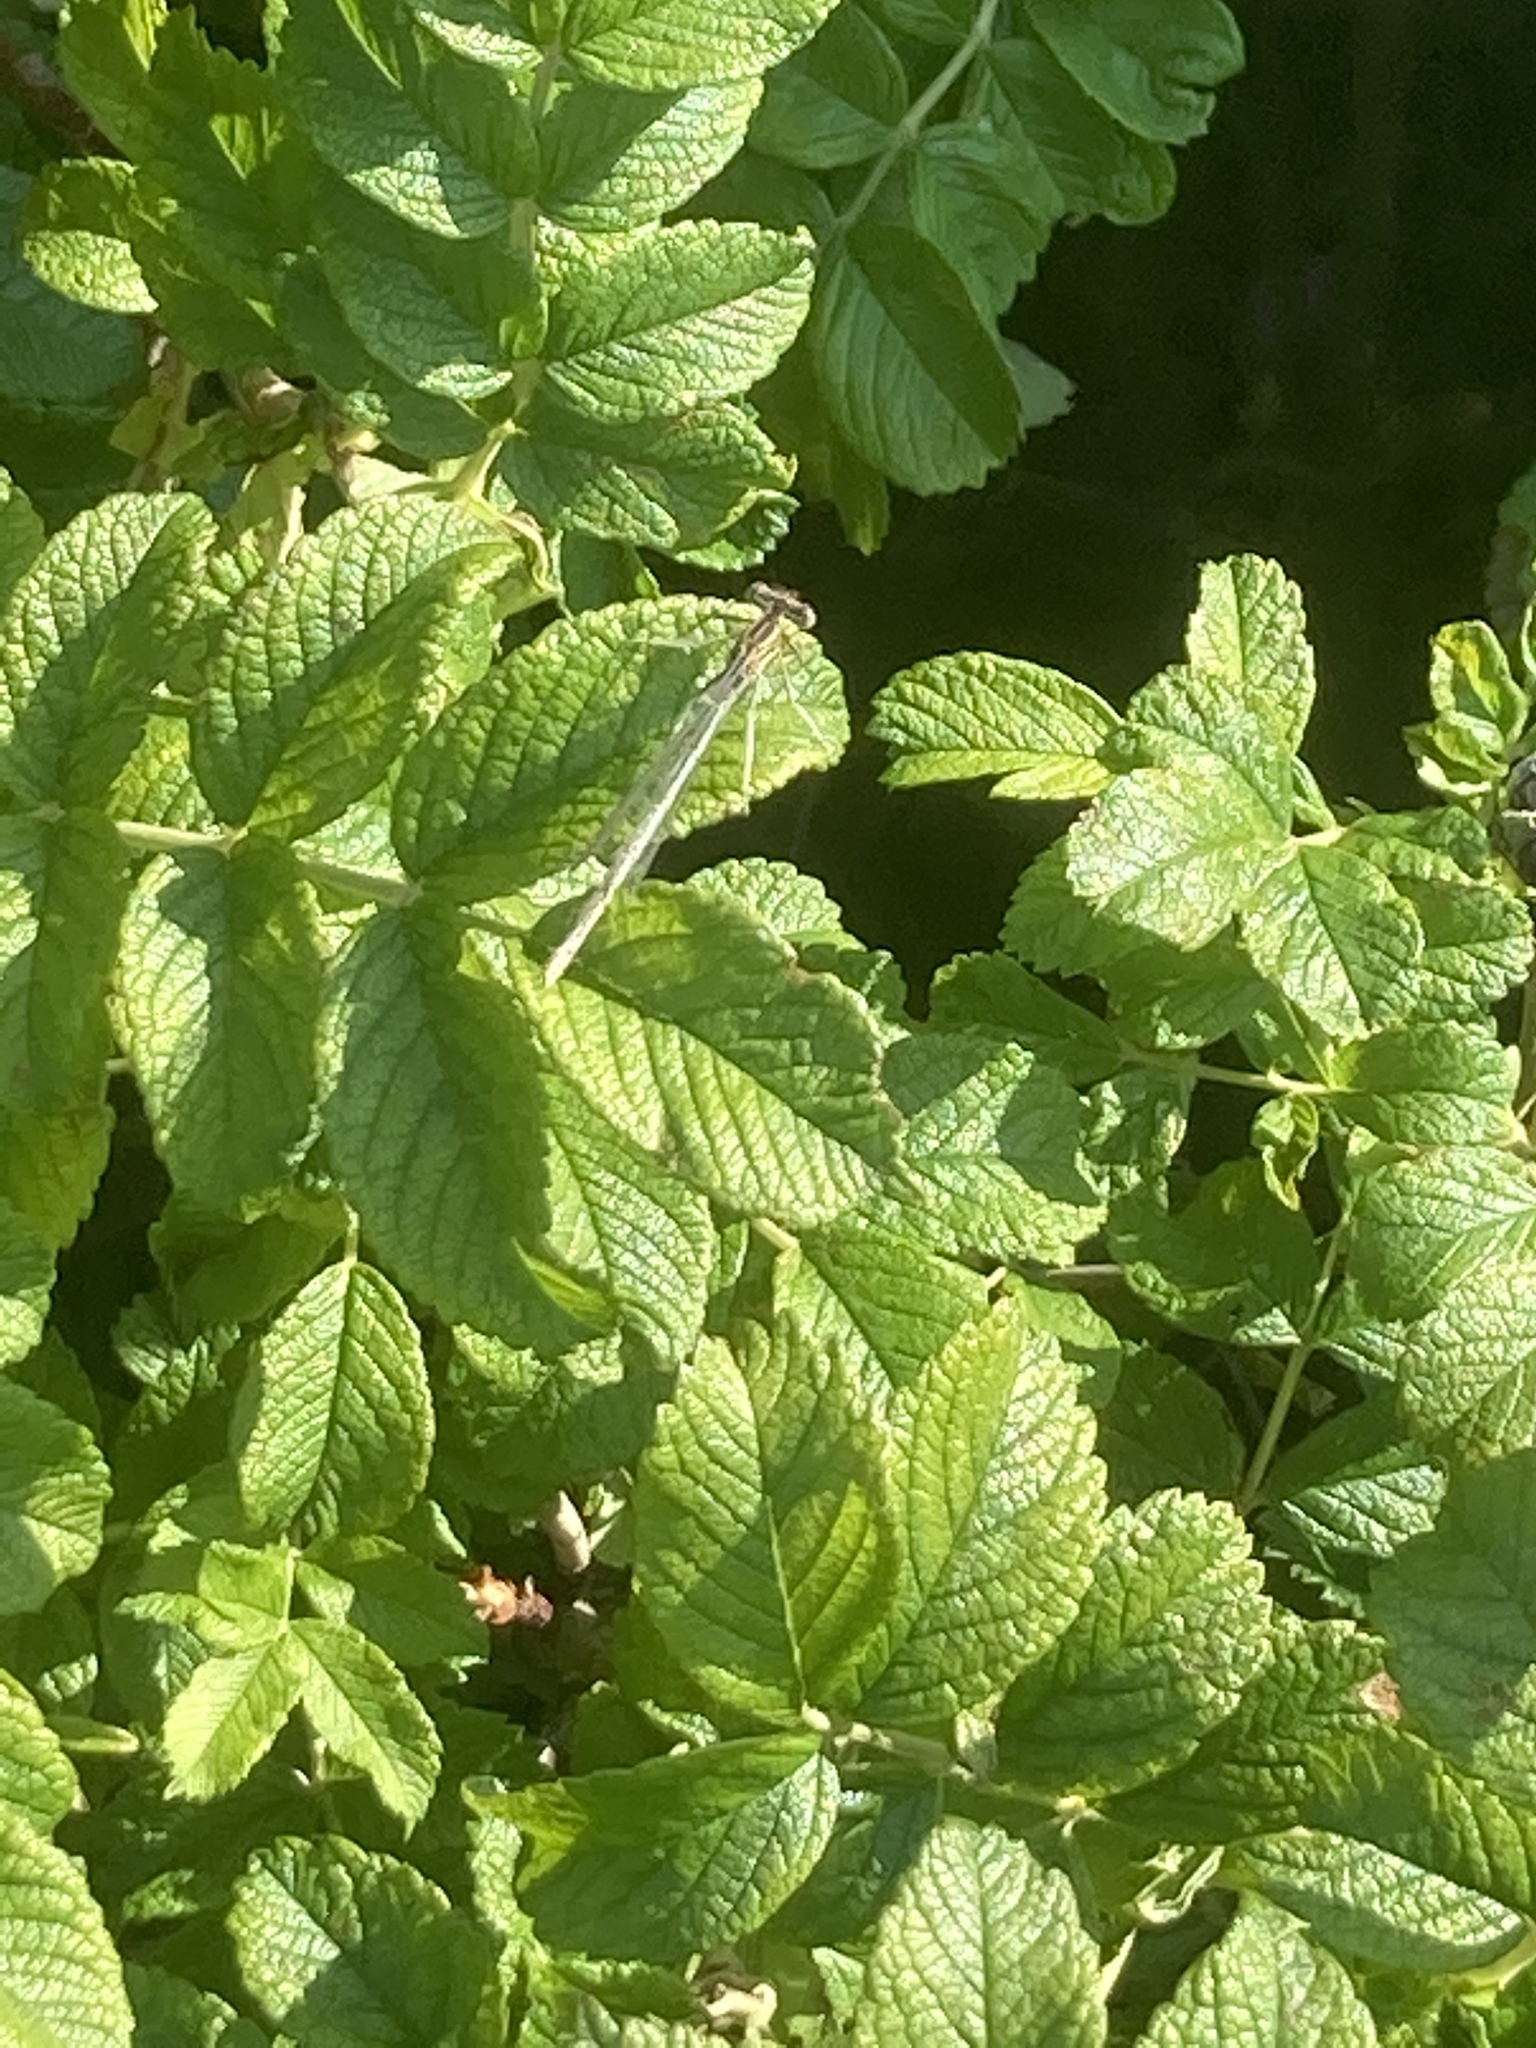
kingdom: Animalia
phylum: Arthropoda
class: Insecta
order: Odonata
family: Platycnemididae
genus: Platycnemis
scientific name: Platycnemis pennipes
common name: White-legged damselfly
